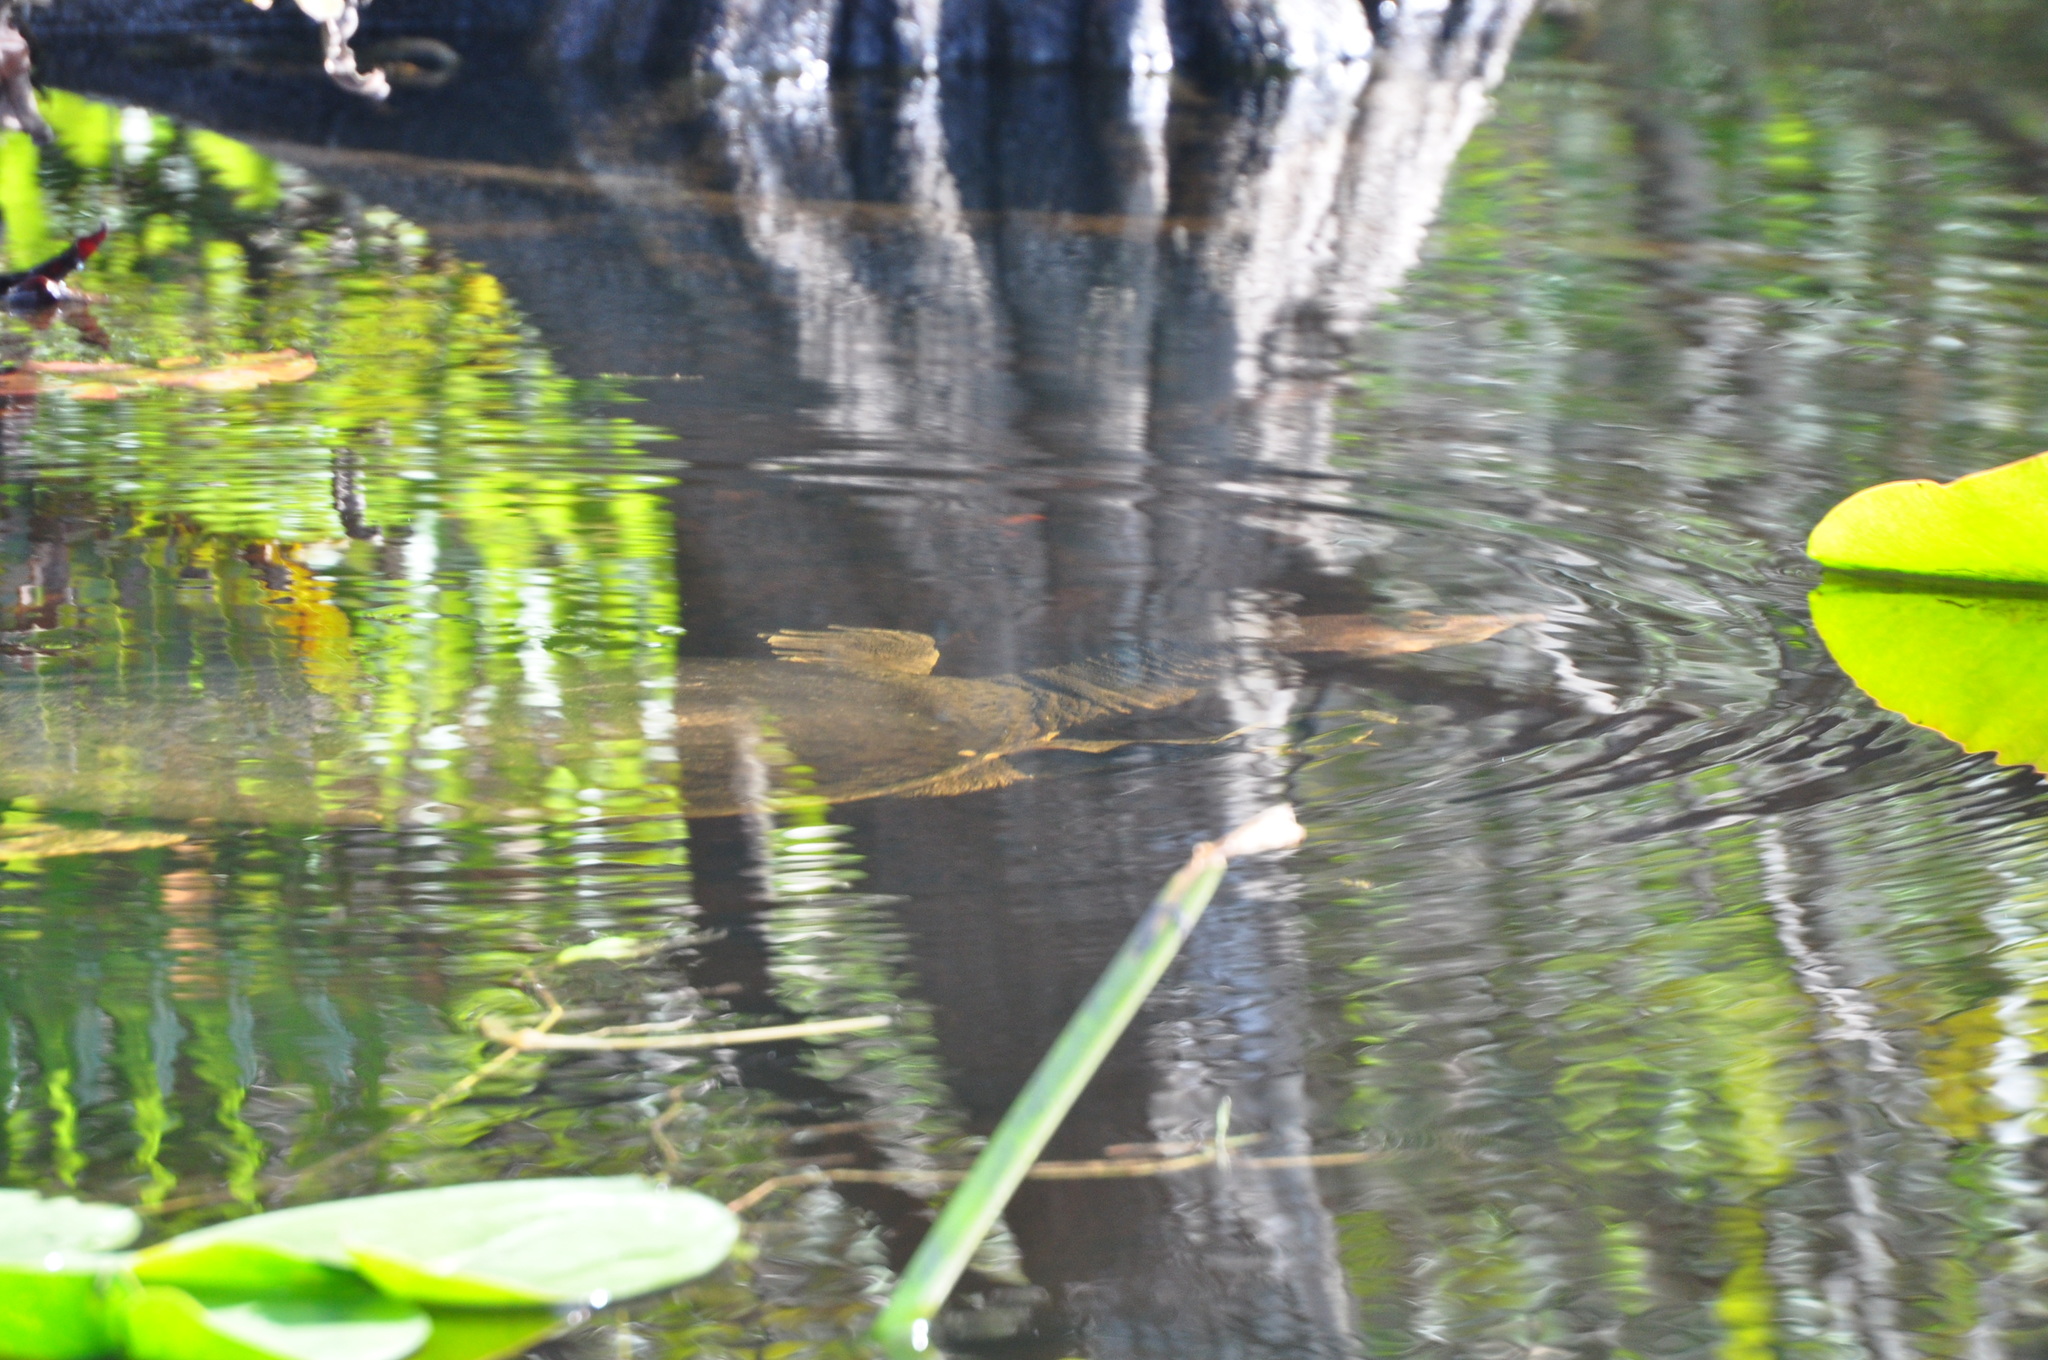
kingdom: Animalia
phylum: Chordata
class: Testudines
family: Trionychidae
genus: Apalone
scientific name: Apalone ferox
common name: Florida softshell turtle
